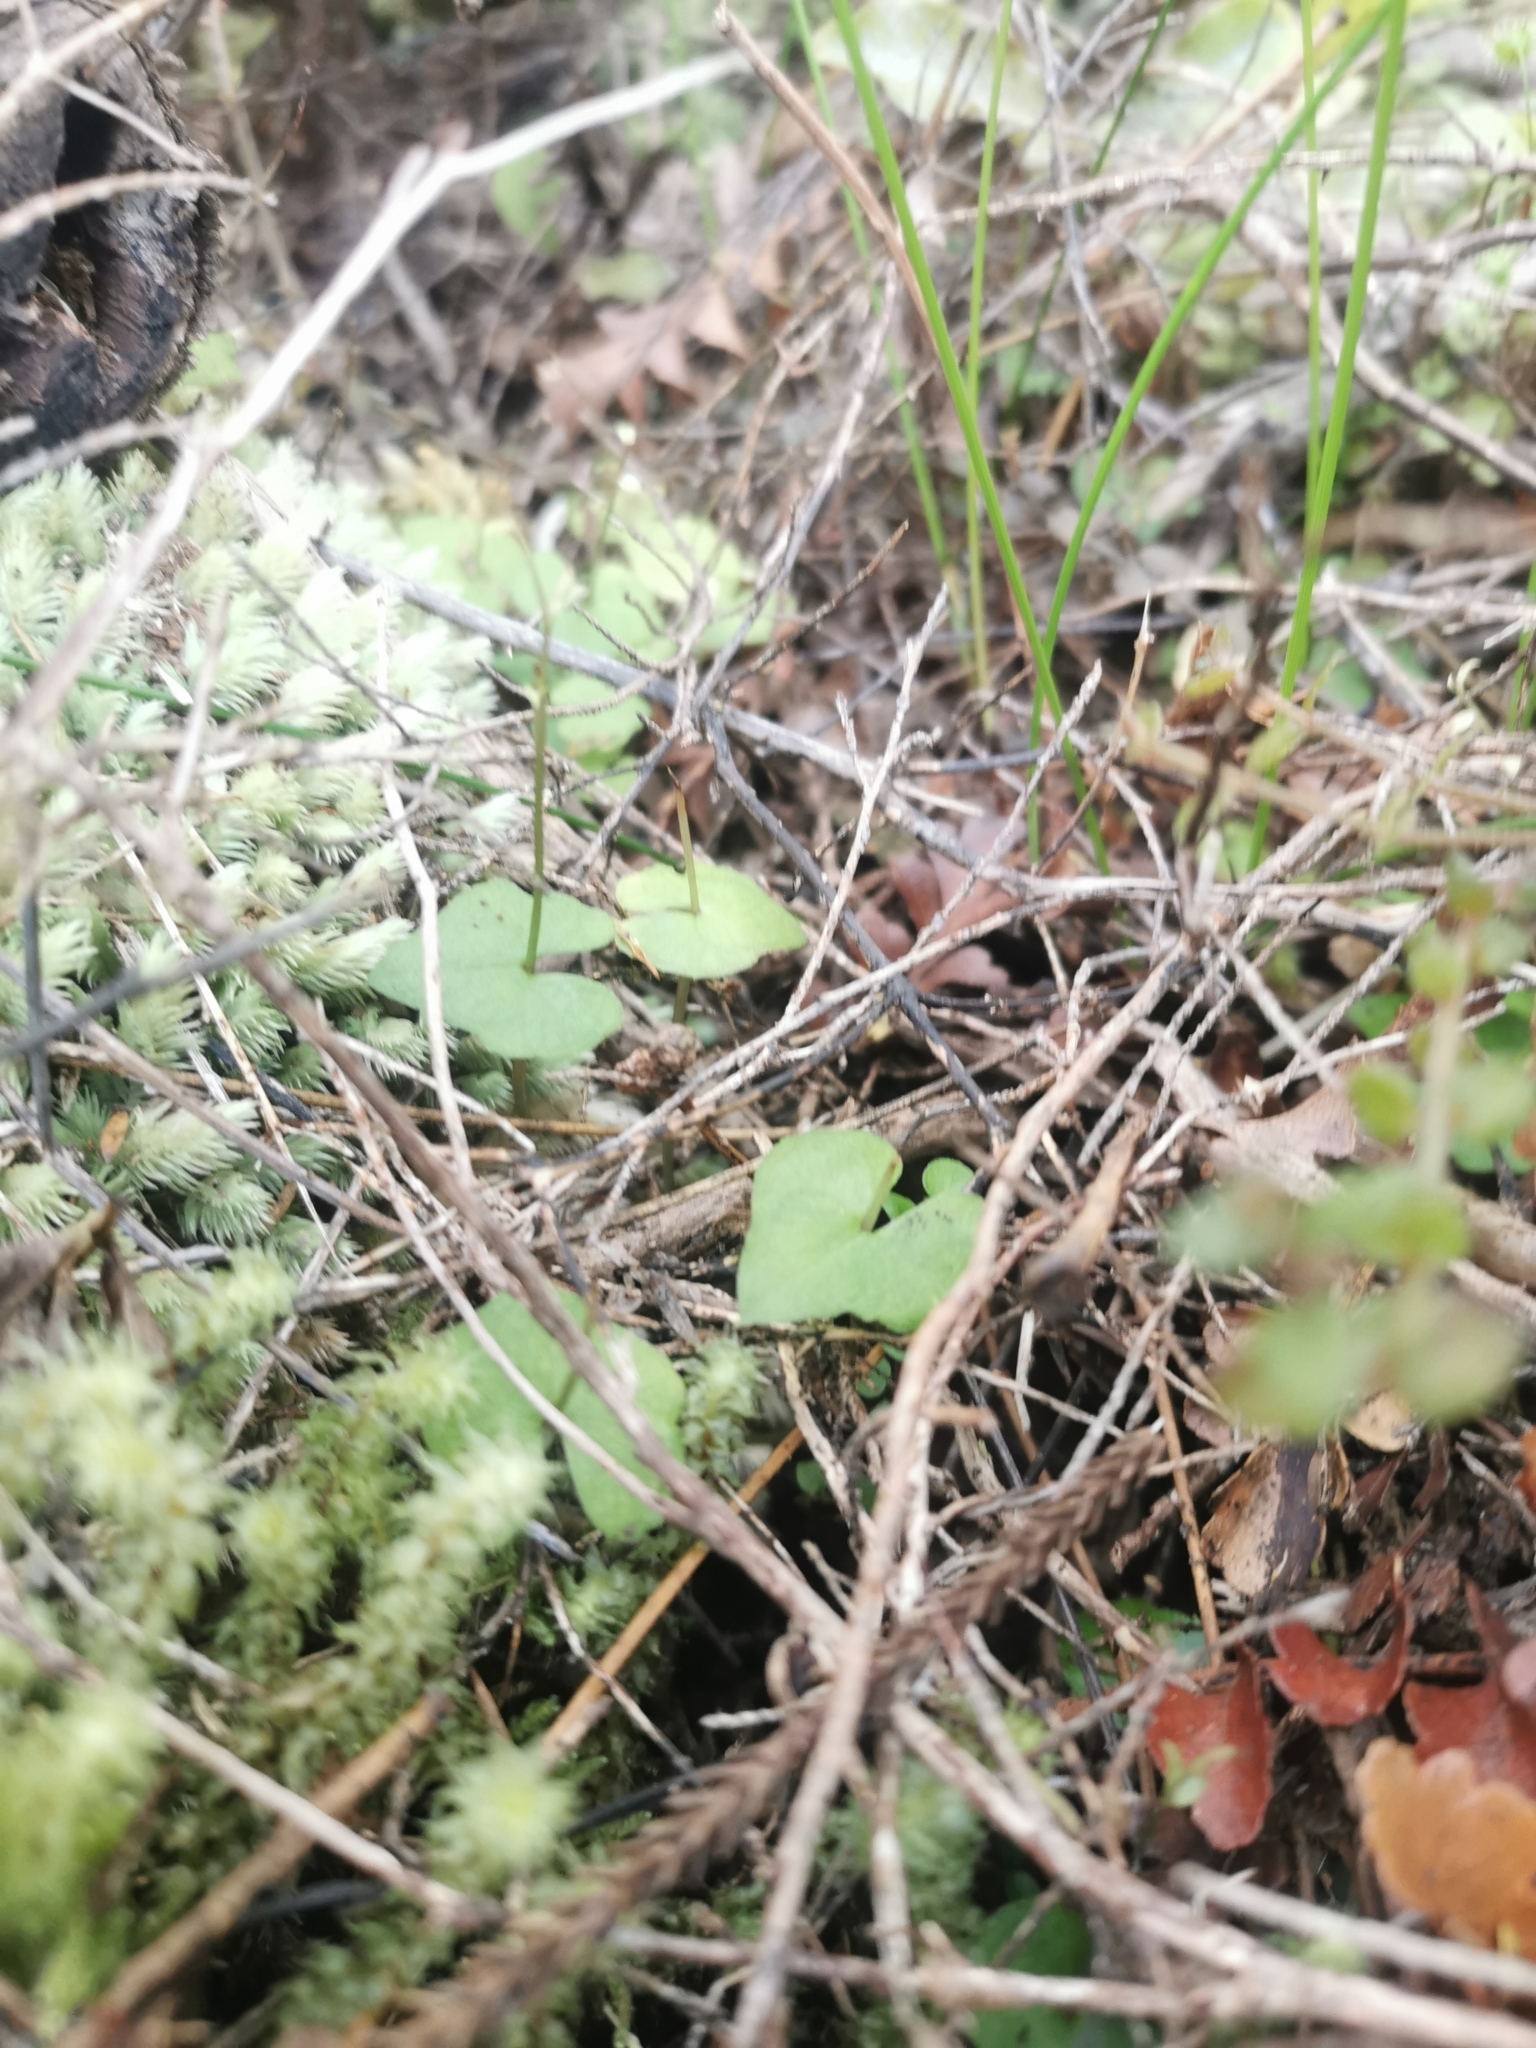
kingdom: Plantae
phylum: Tracheophyta
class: Liliopsida
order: Asparagales
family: Orchidaceae
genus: Acianthus
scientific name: Acianthus sinclairii
